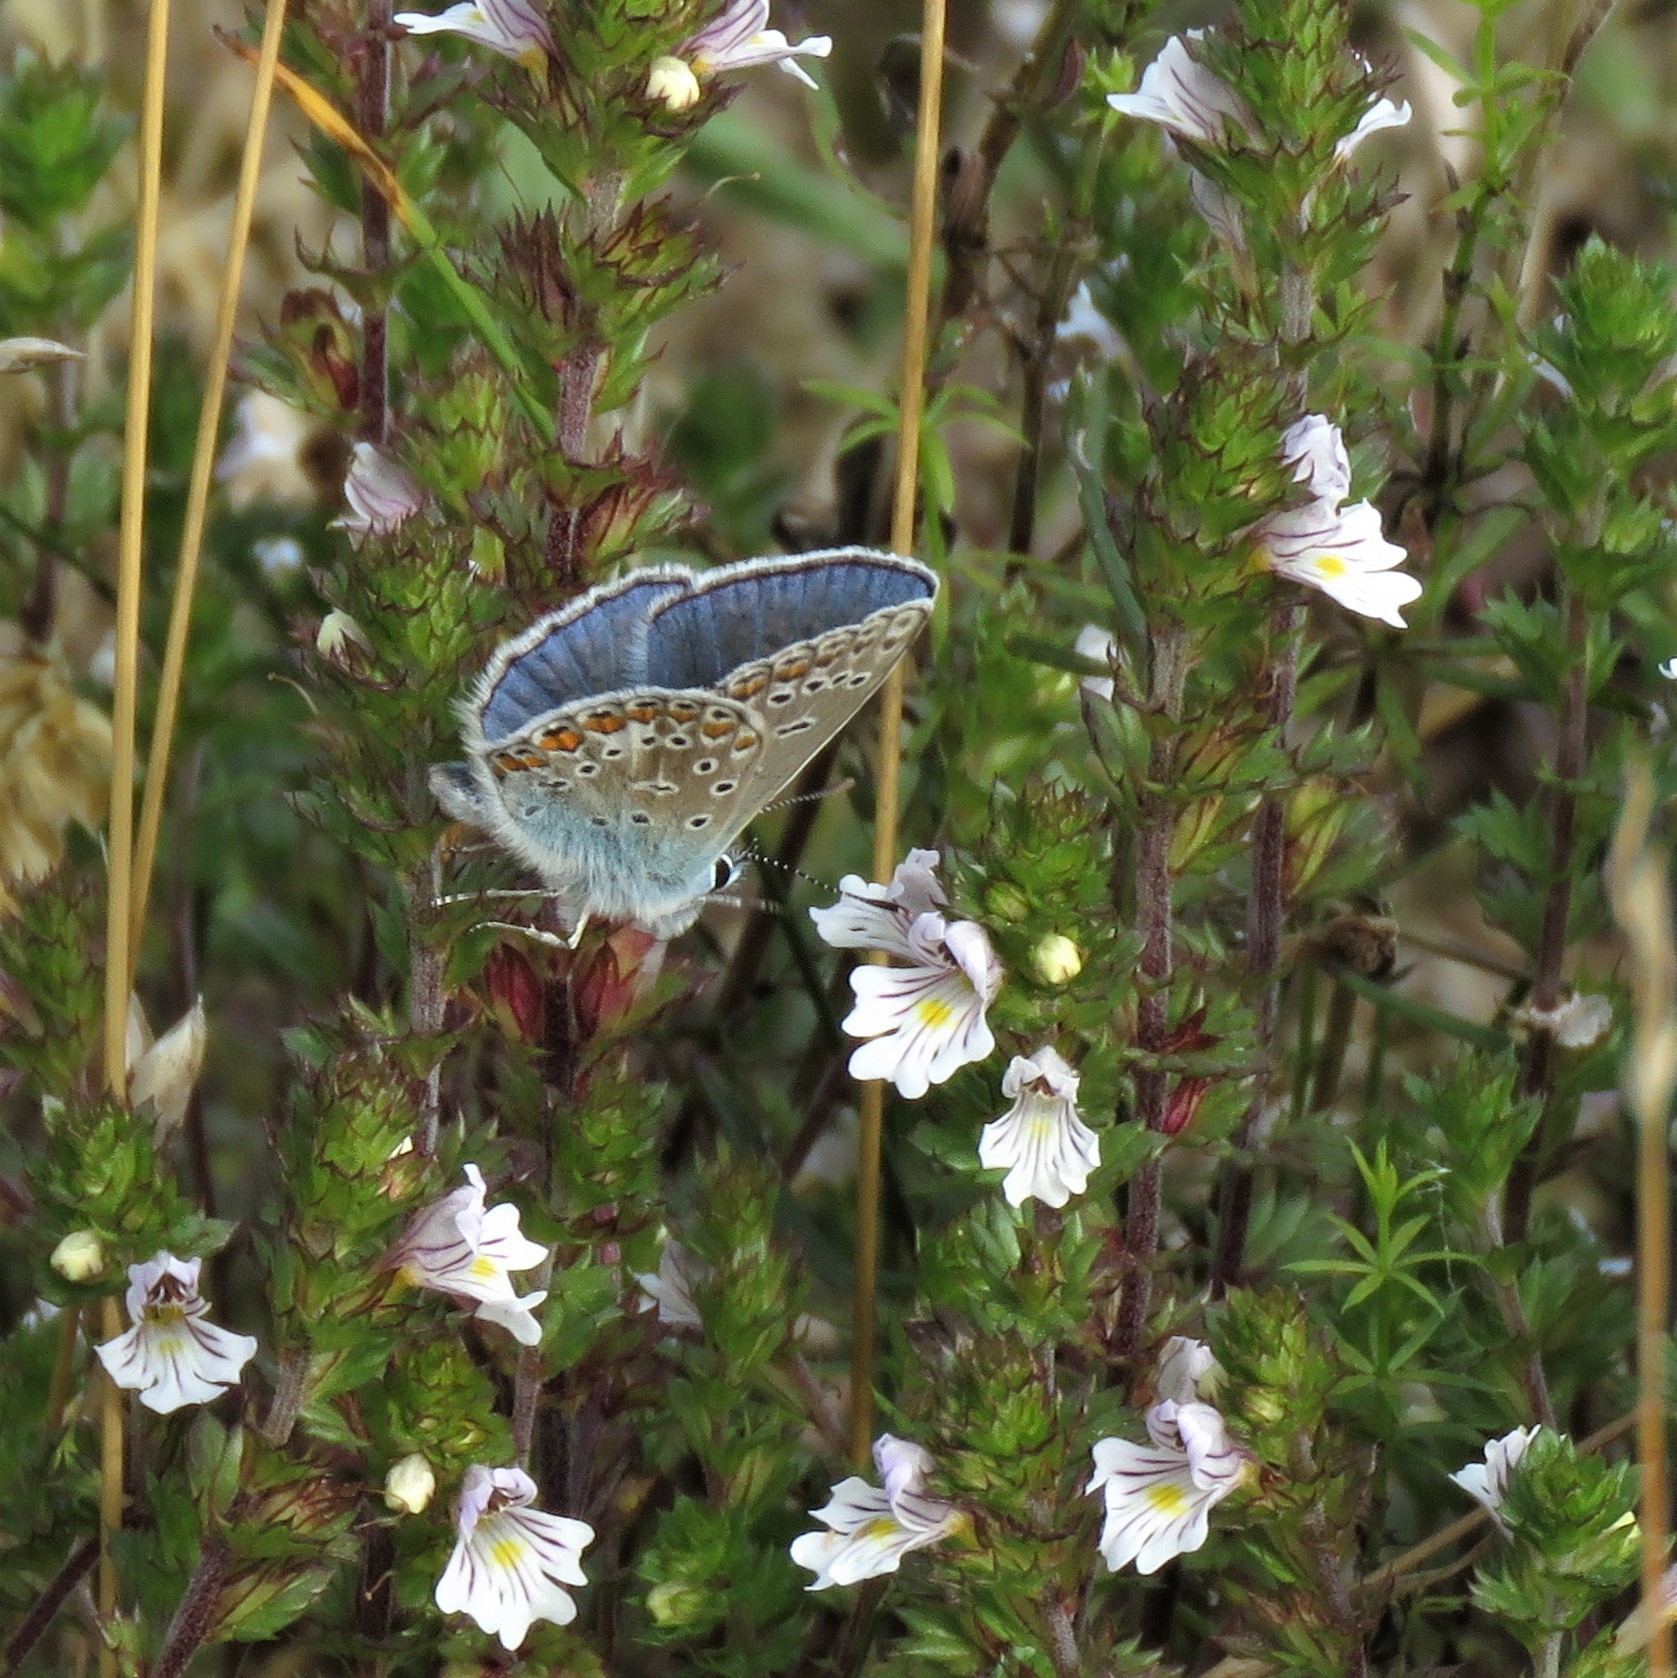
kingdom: Animalia
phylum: Arthropoda
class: Insecta
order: Lepidoptera
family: Lycaenidae
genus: Polyommatus
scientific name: Polyommatus icarus
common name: Common blue
